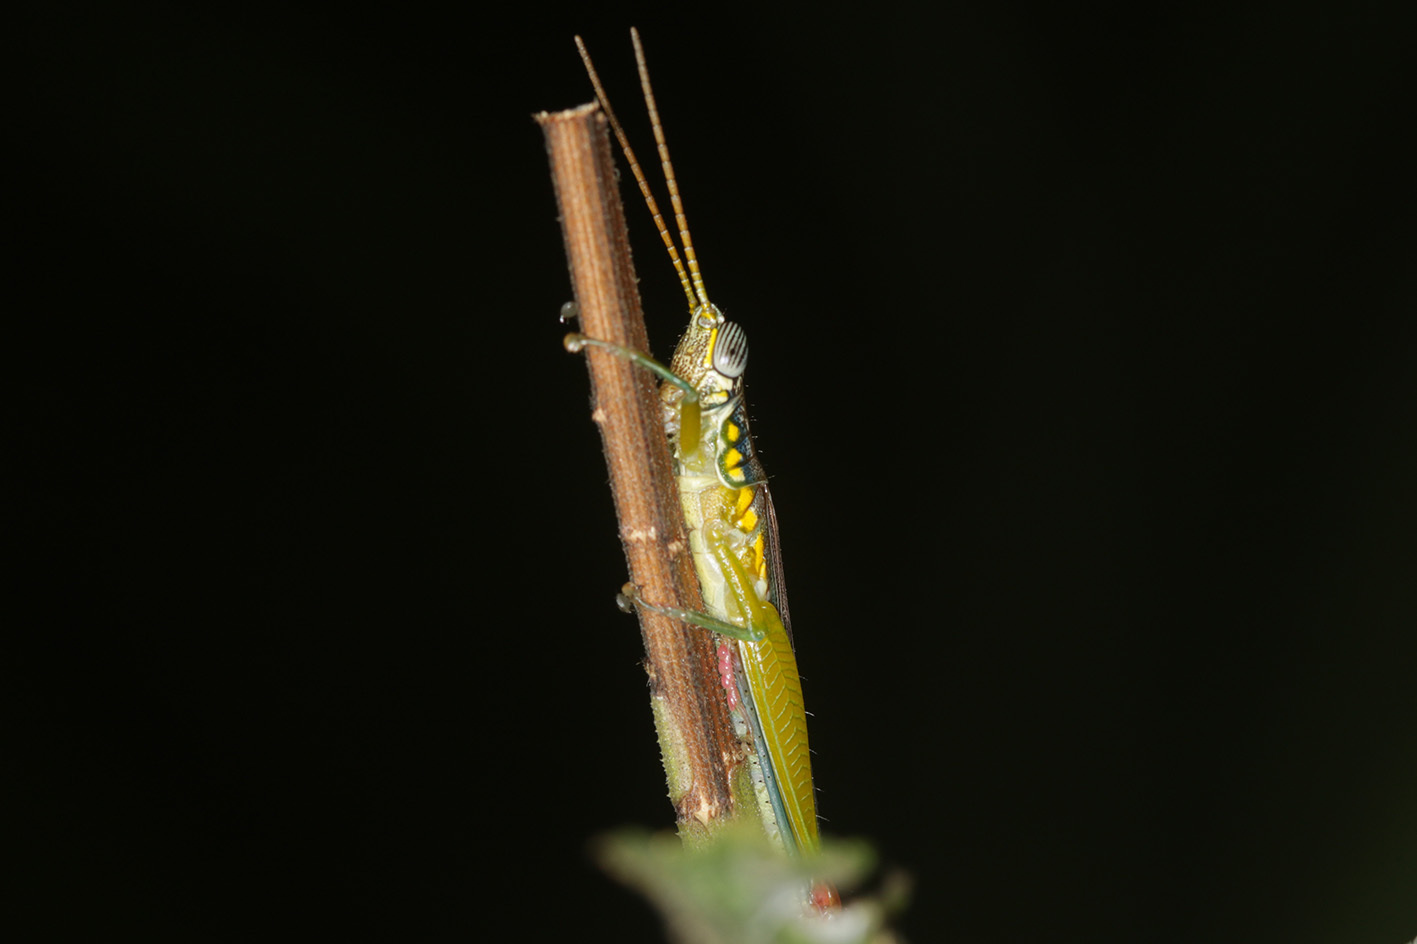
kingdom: Animalia
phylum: Arthropoda
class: Insecta
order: Orthoptera
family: Acrididae
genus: Stenopola
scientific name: Stenopola bohlsii
